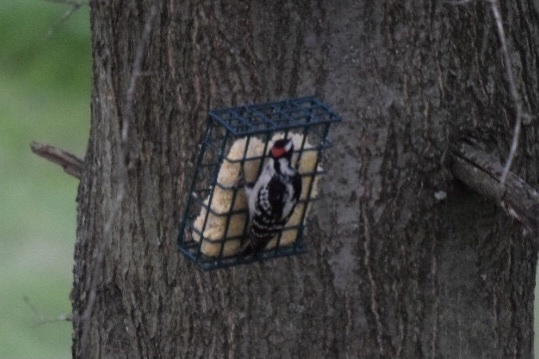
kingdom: Animalia
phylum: Chordata
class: Aves
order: Piciformes
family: Picidae
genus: Dryobates
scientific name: Dryobates pubescens
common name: Downy woodpecker
